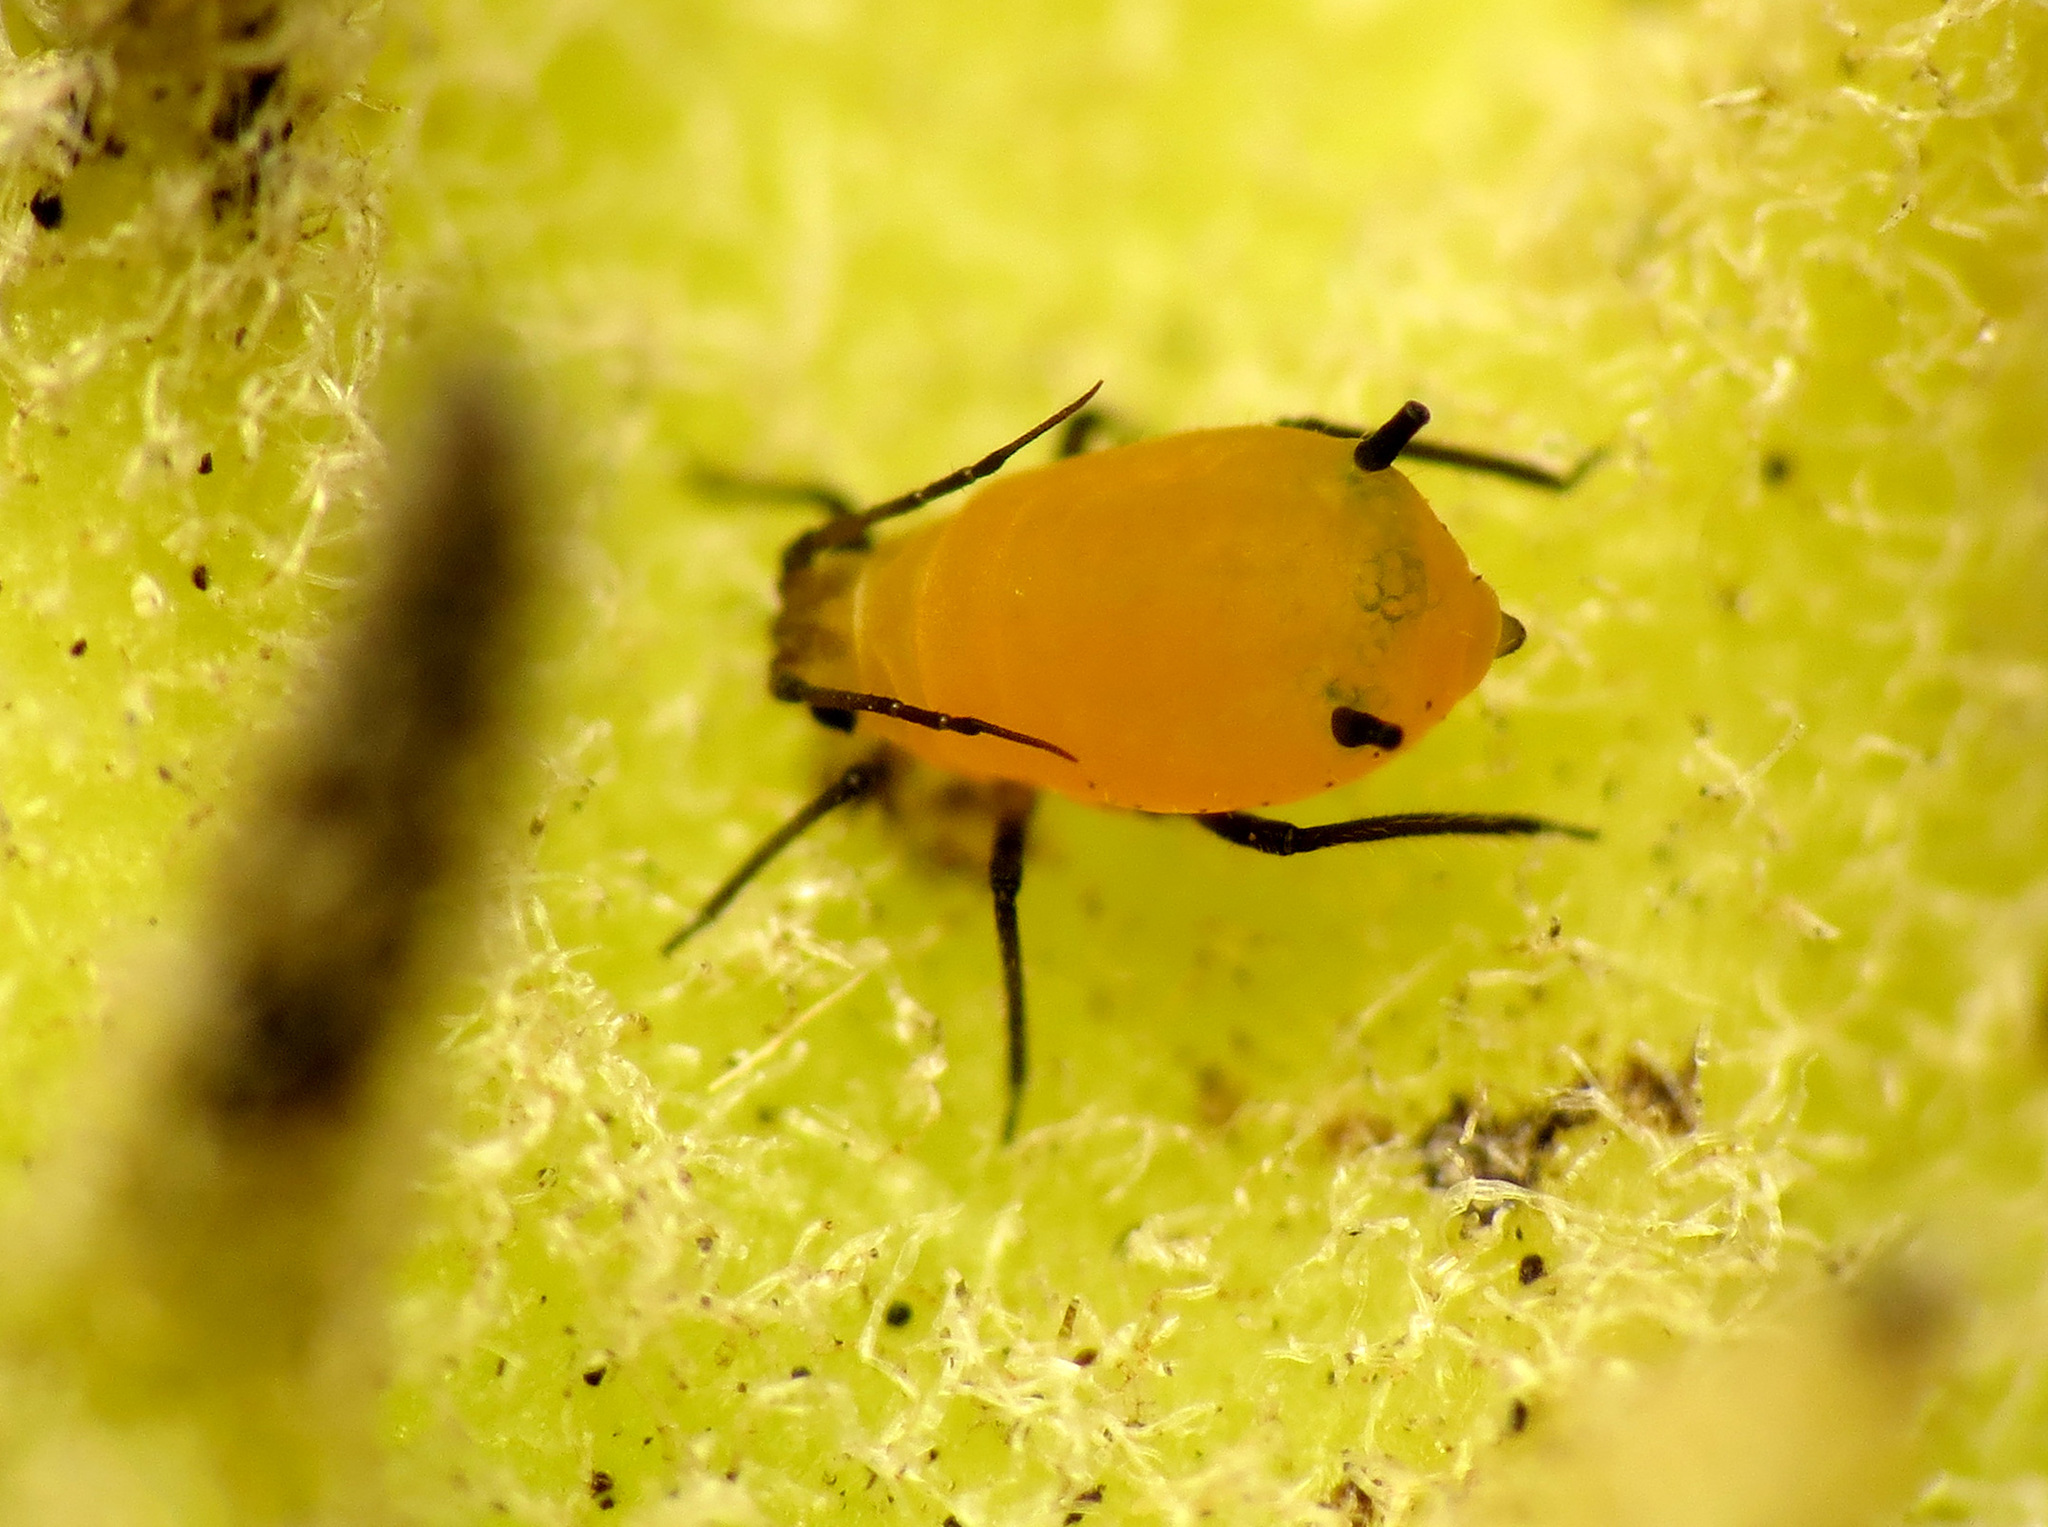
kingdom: Animalia
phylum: Arthropoda
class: Insecta
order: Hemiptera
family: Aphididae
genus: Aphis
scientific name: Aphis nerii
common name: Oleander aphid
